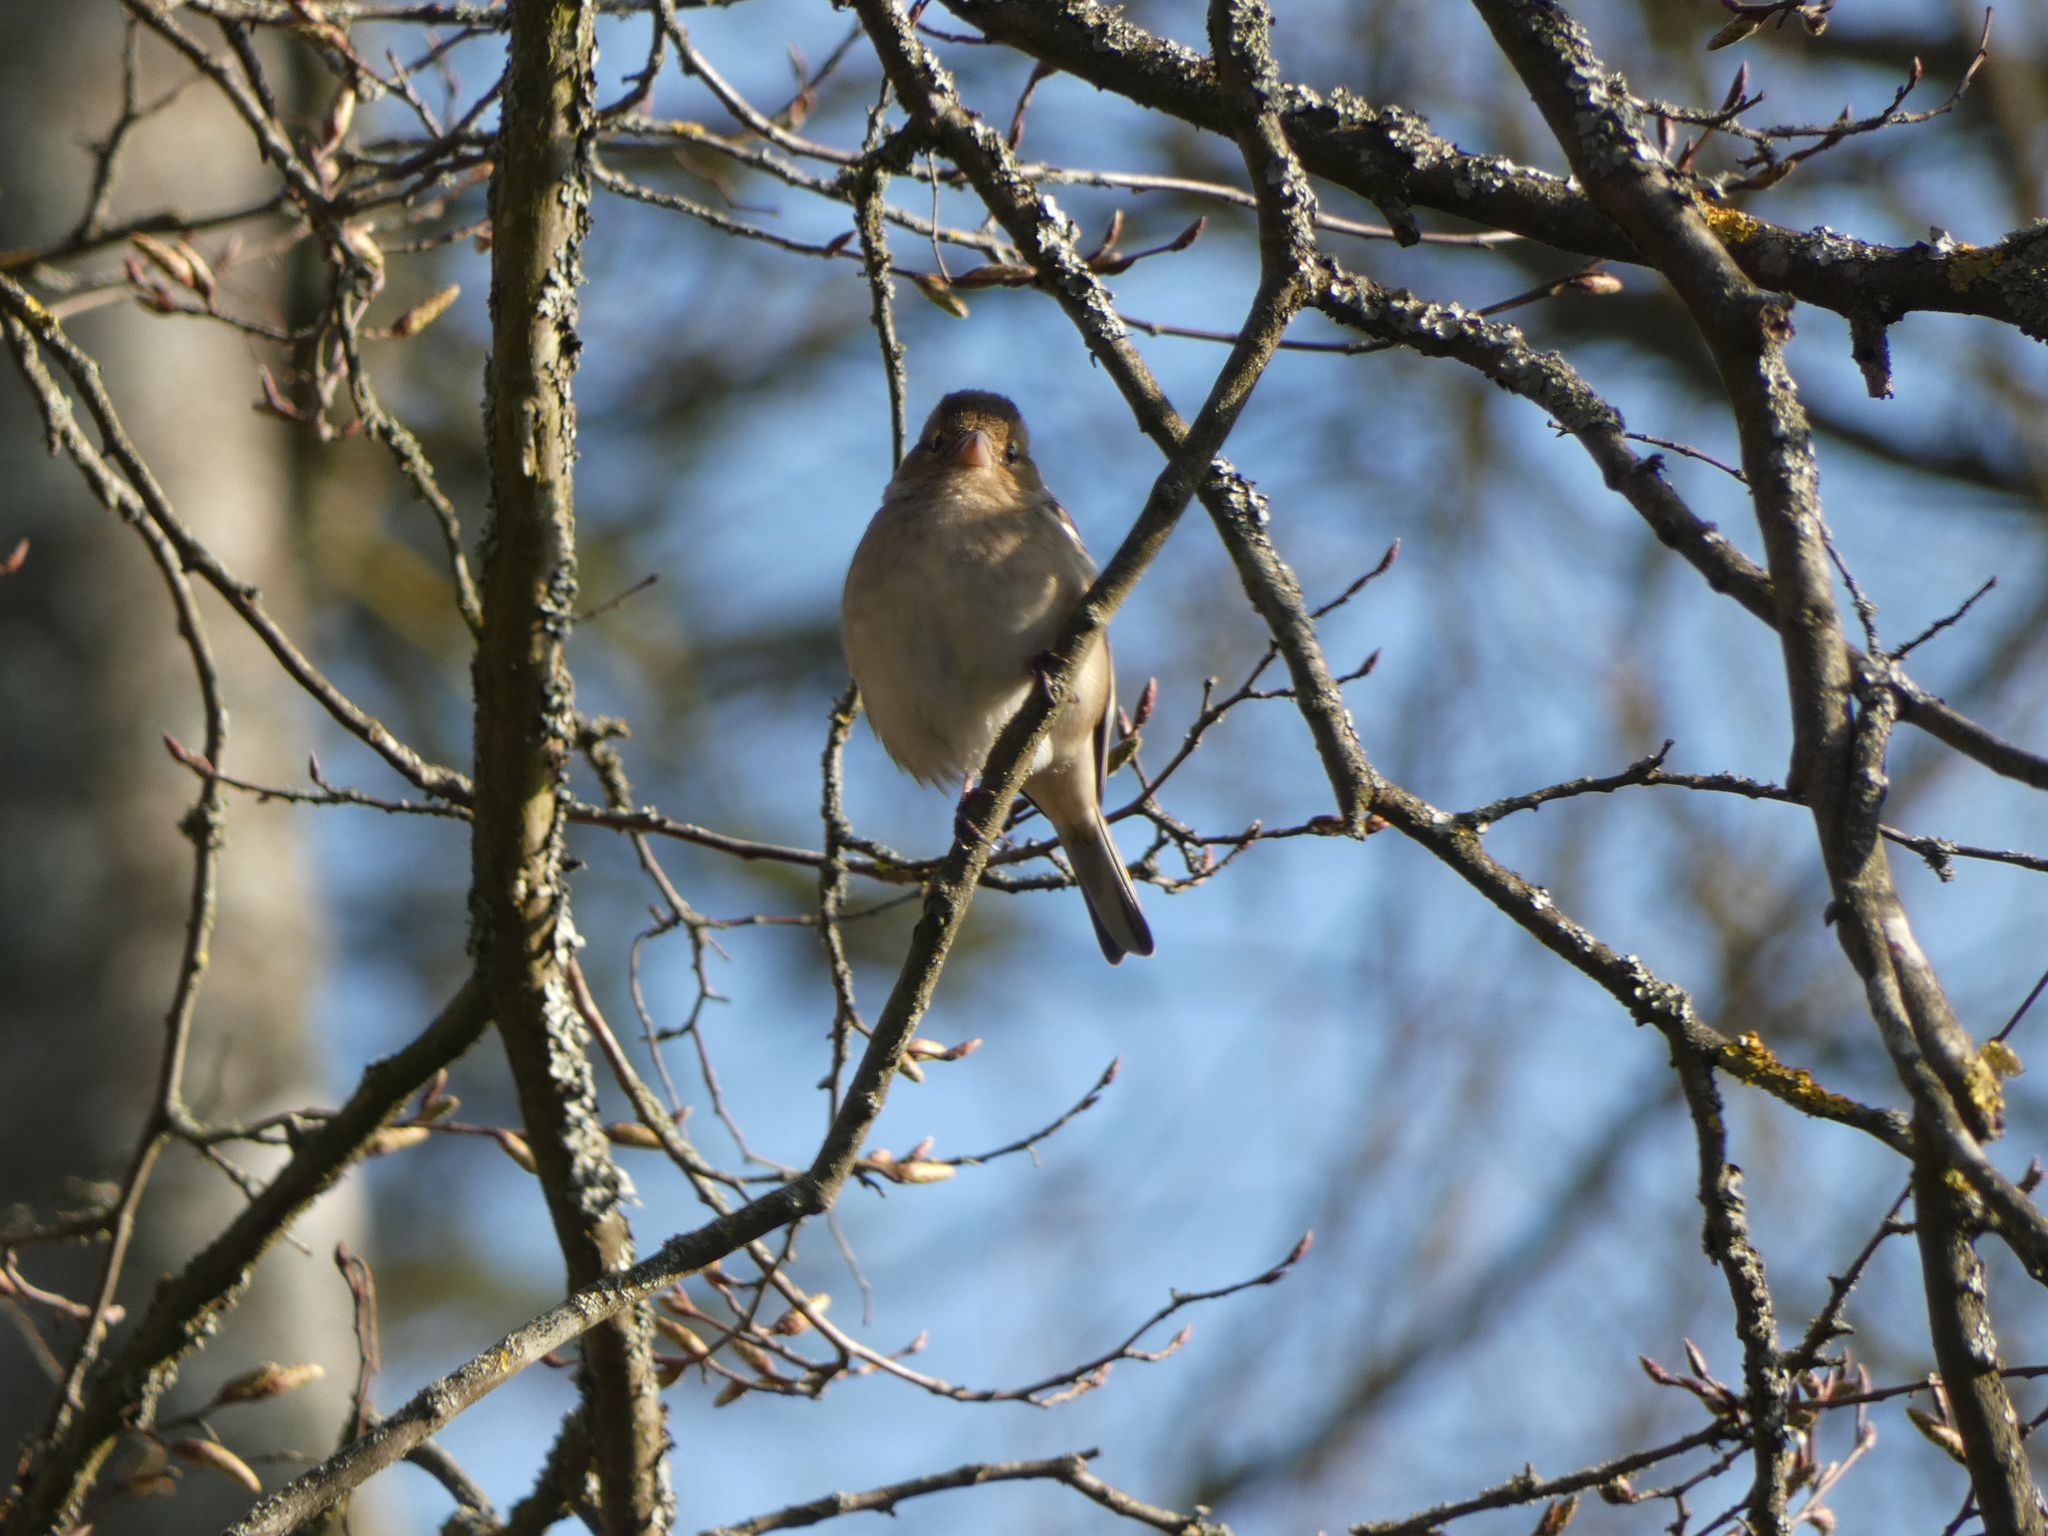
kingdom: Animalia
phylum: Chordata
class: Aves
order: Passeriformes
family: Fringillidae
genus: Fringilla
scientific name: Fringilla coelebs
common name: Common chaffinch
